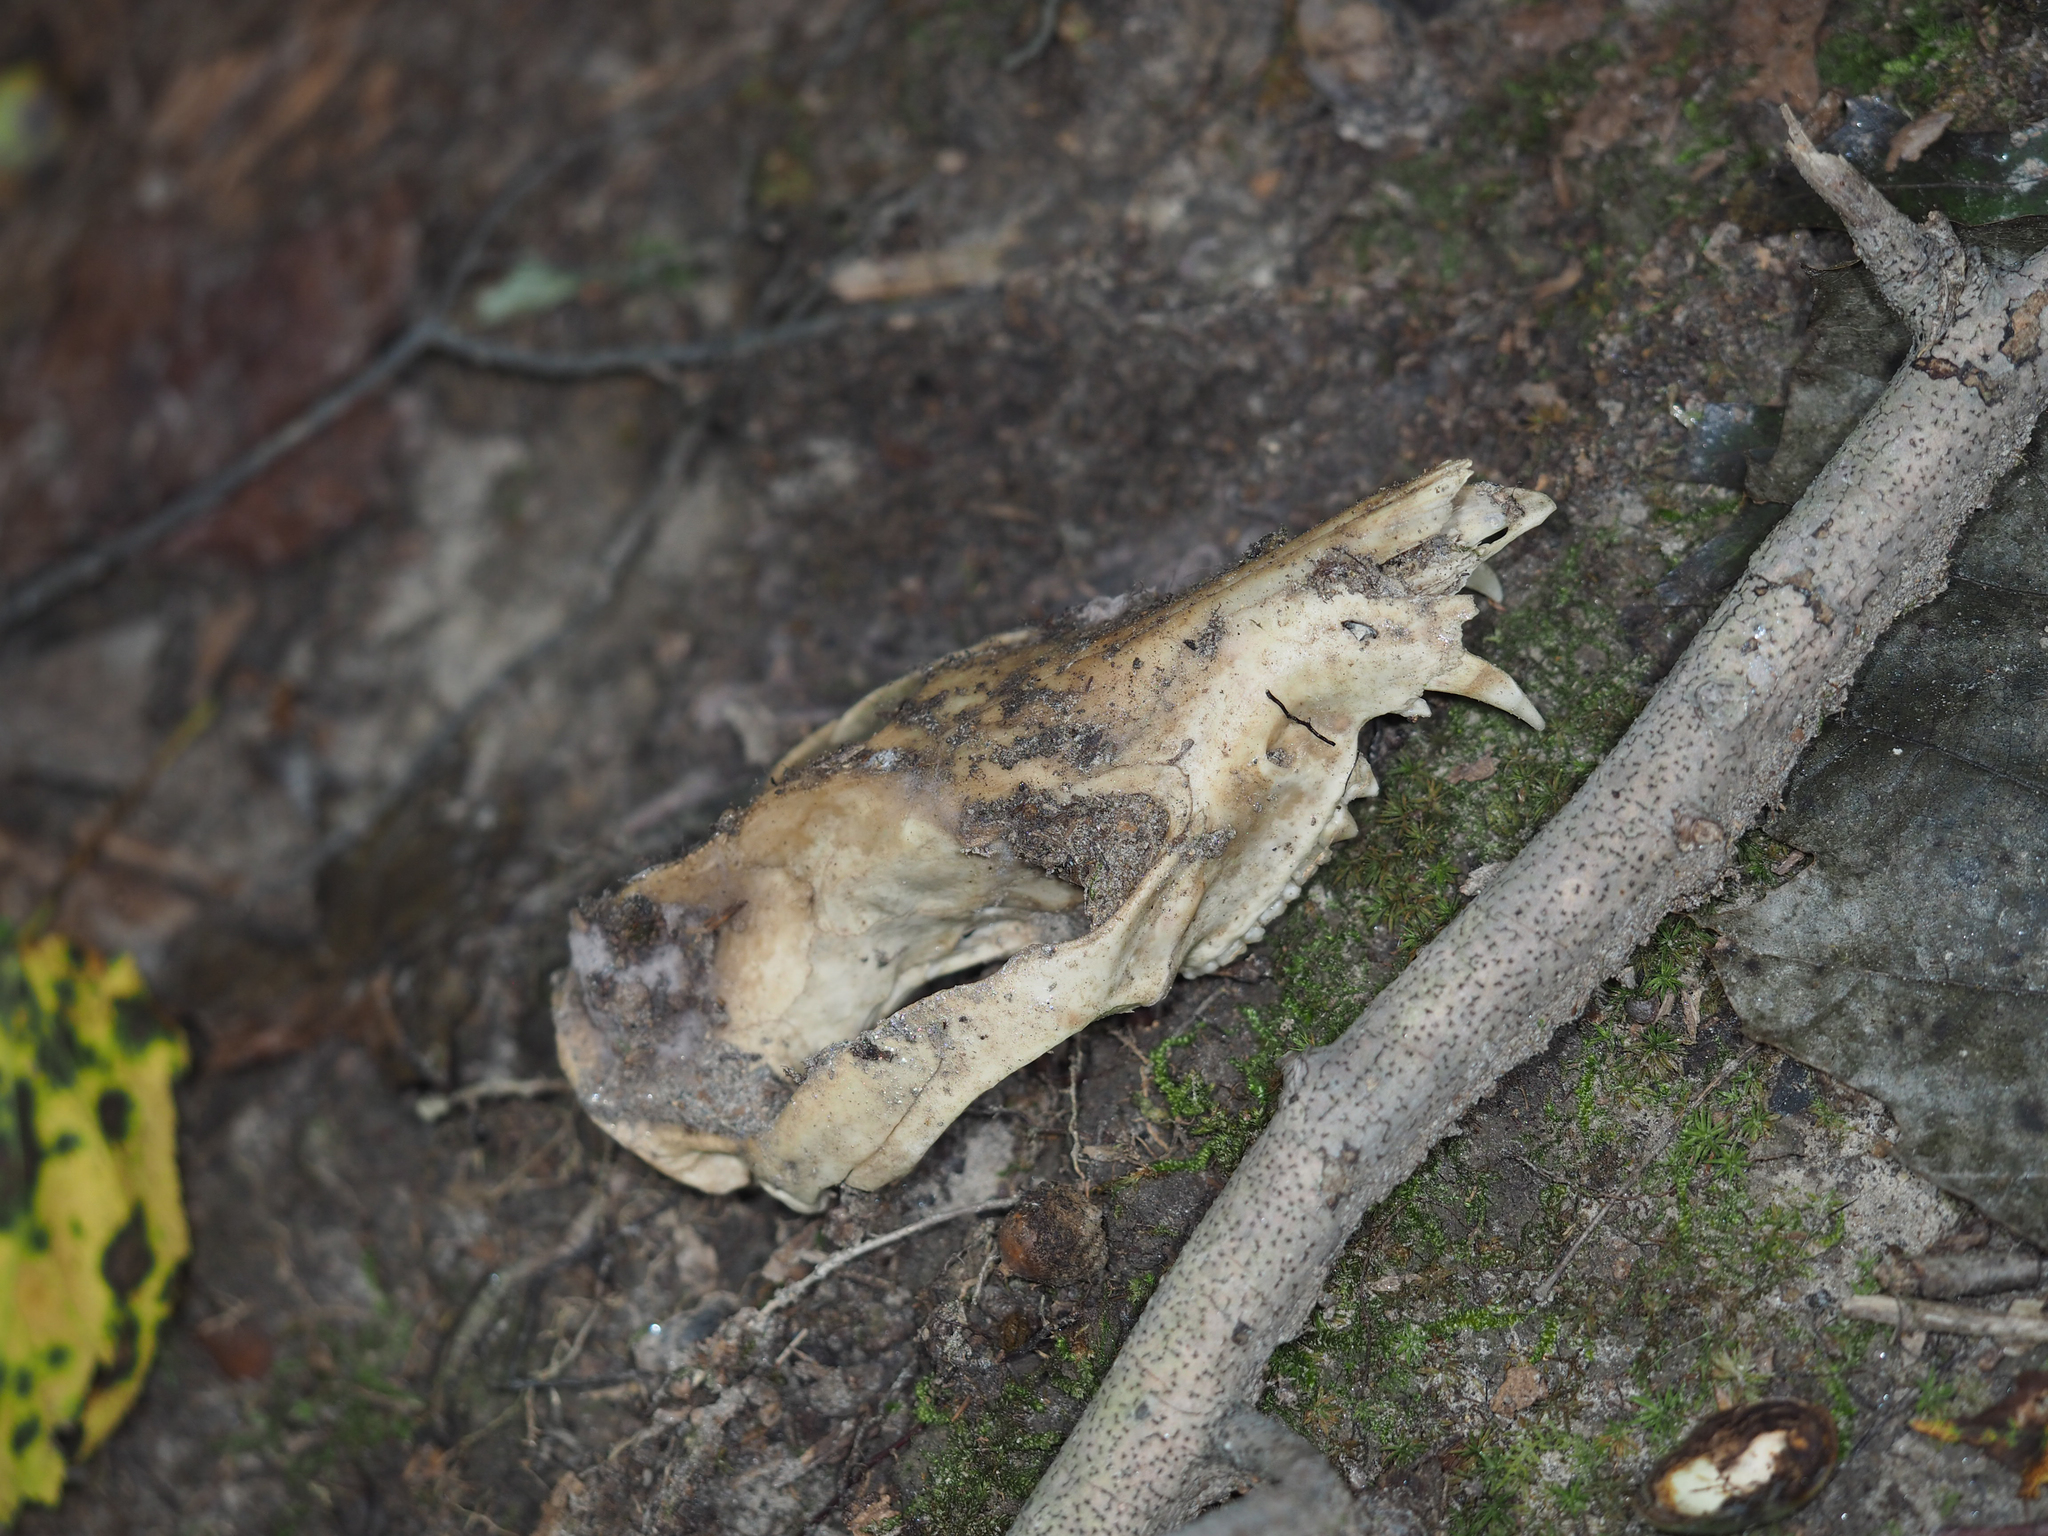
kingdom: Animalia
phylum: Chordata
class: Mammalia
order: Didelphimorphia
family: Didelphidae
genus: Didelphis
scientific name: Didelphis virginiana
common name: Virginia opossum
